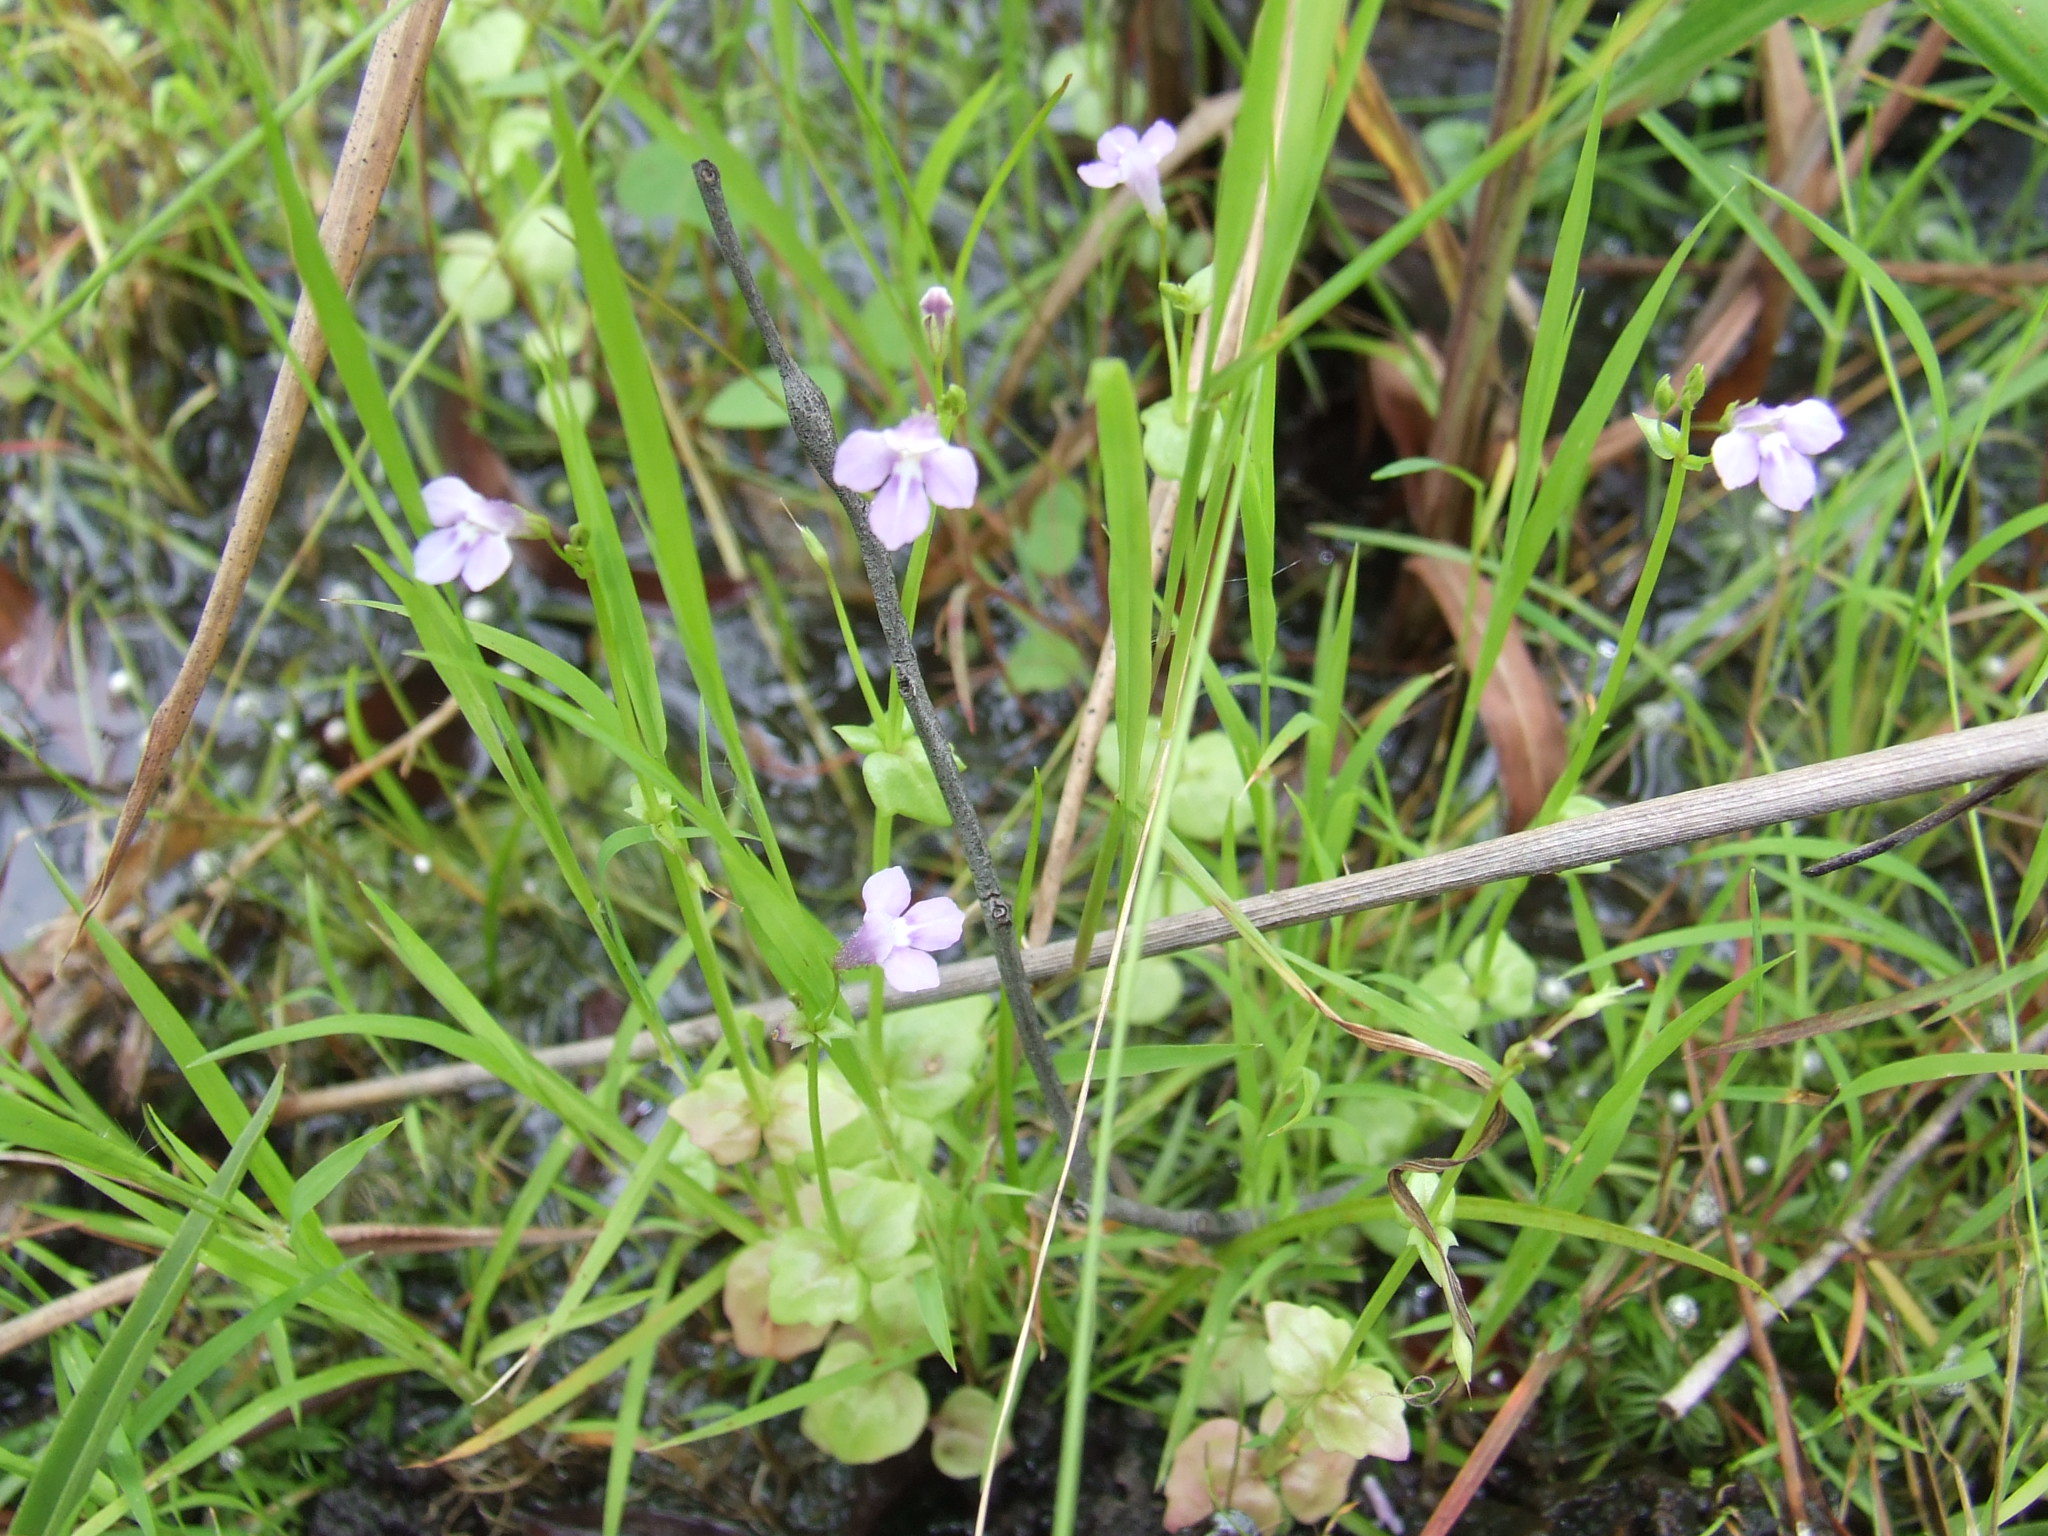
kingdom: Plantae
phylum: Tracheophyta
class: Magnoliopsida
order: Lamiales
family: Linderniaceae
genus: Vandellia
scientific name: Vandellia scapigera
